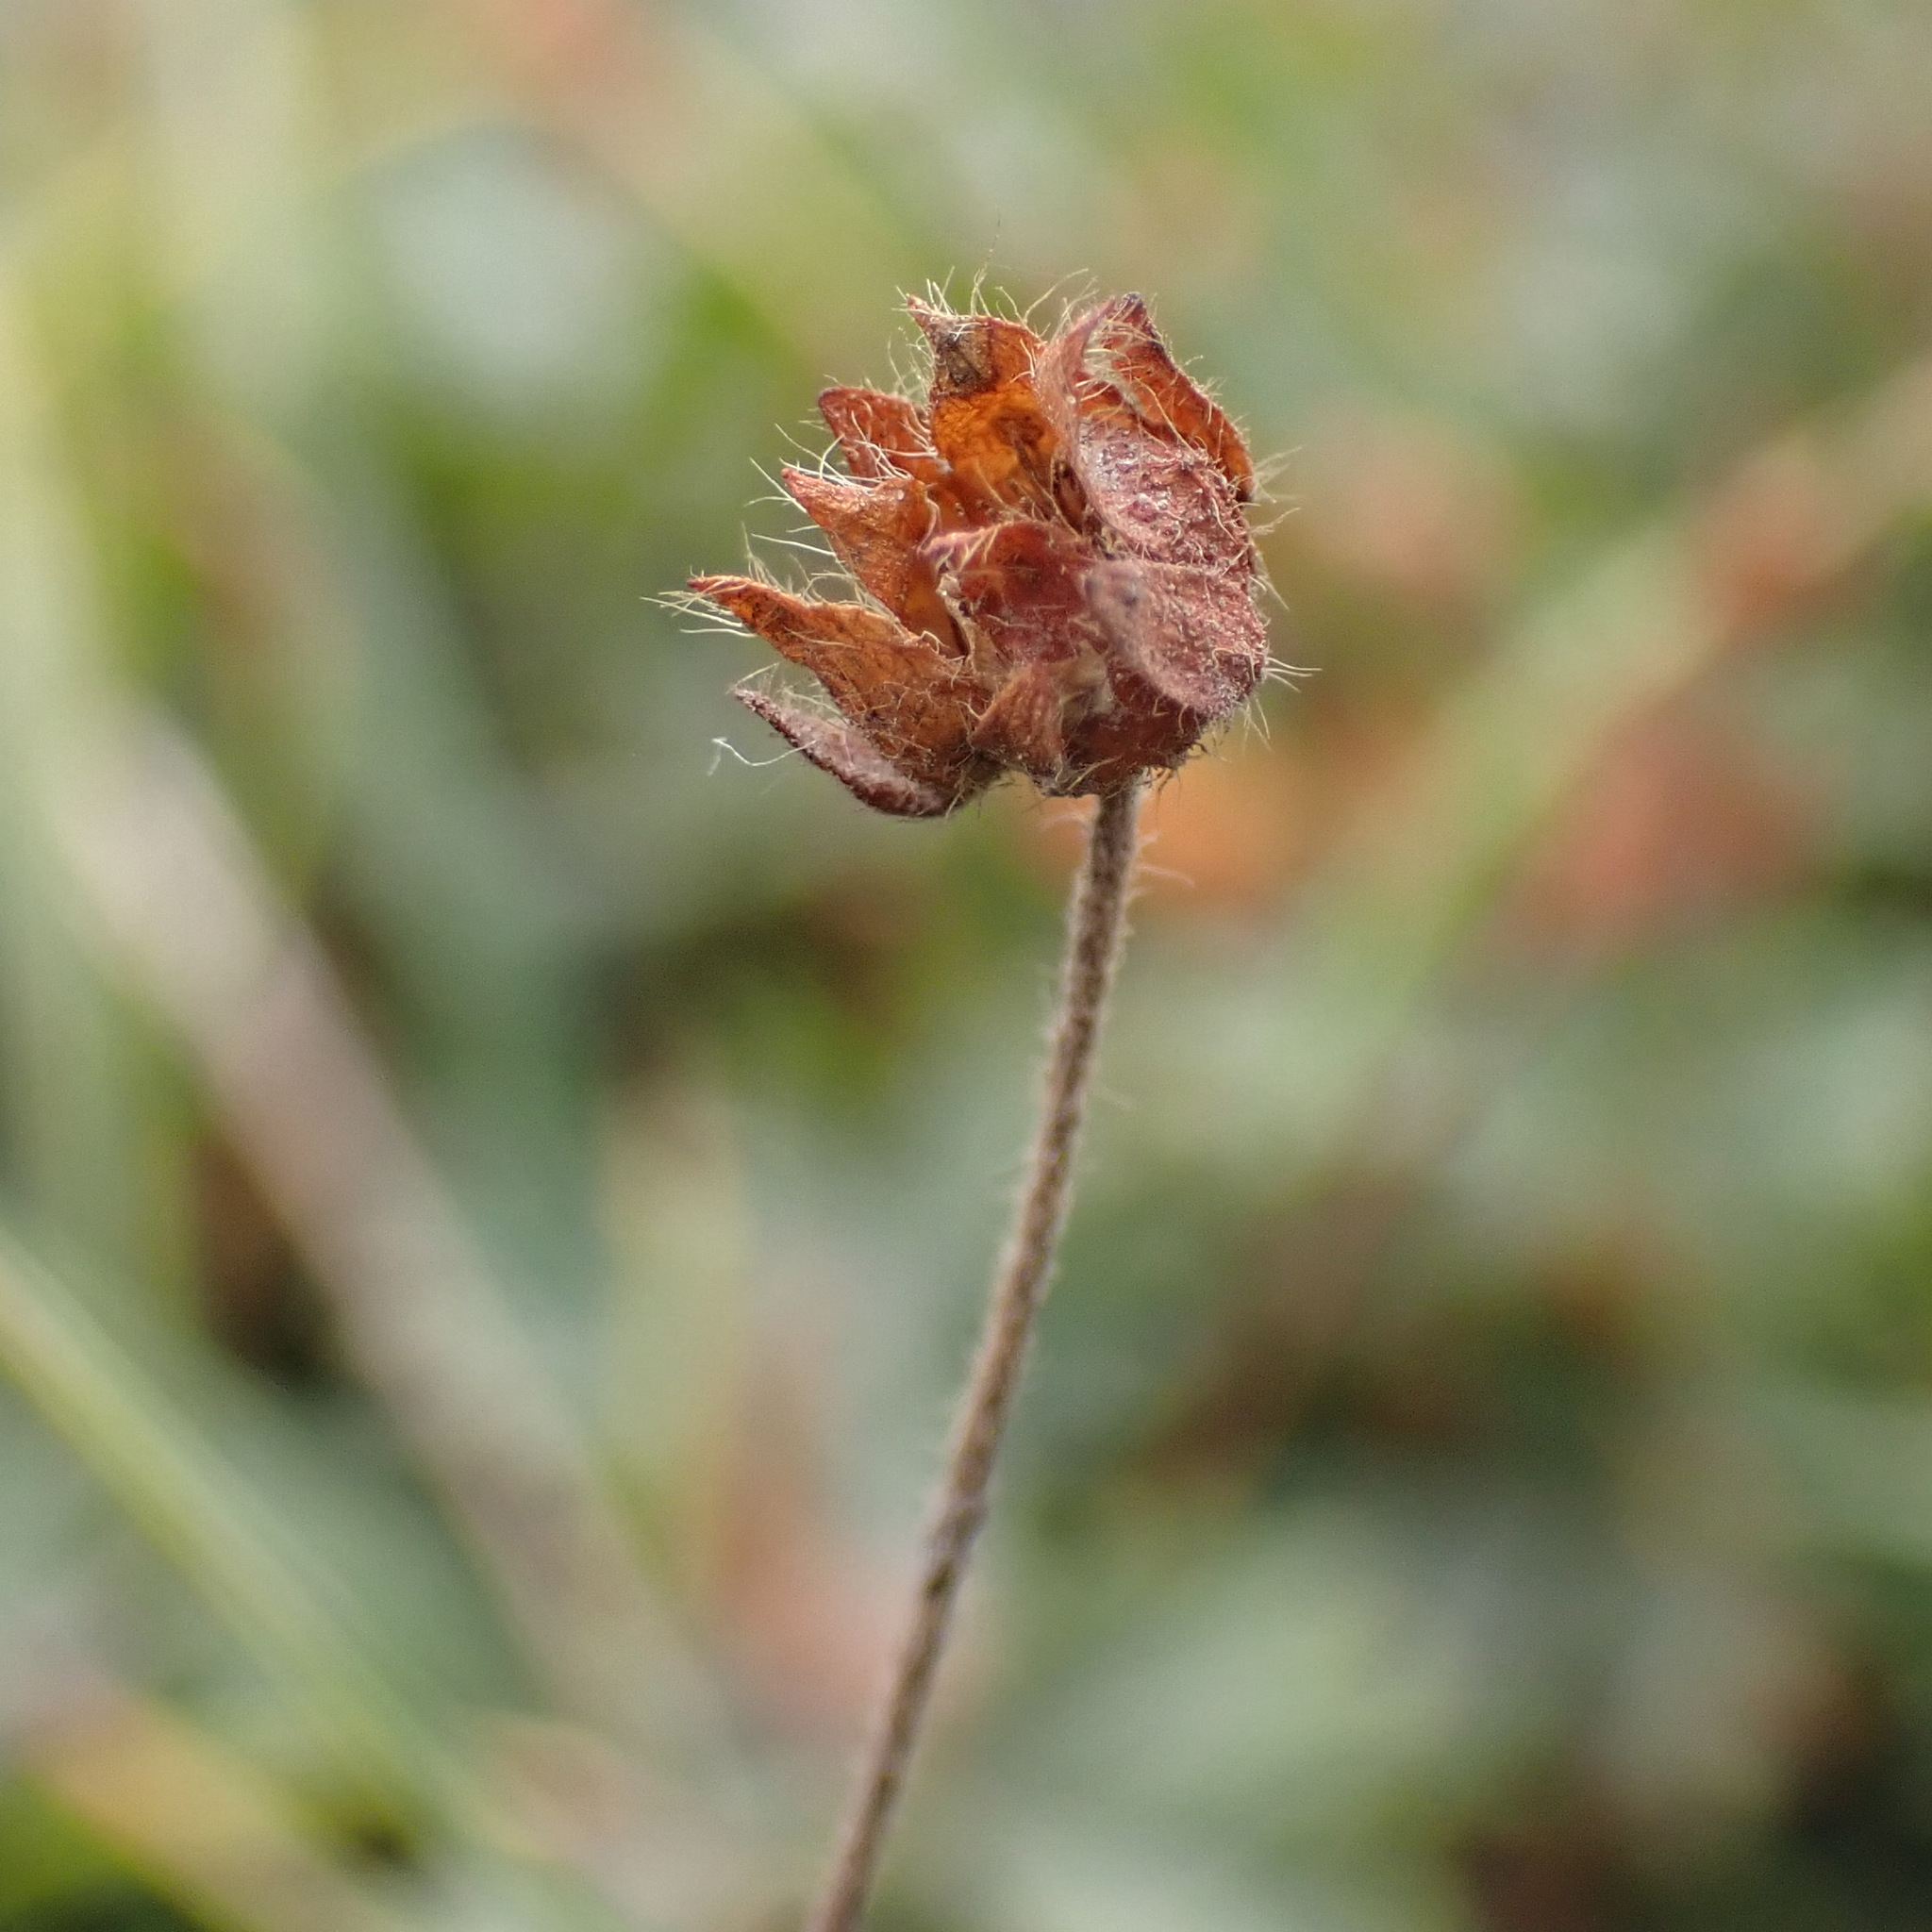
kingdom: Plantae
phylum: Tracheophyta
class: Magnoliopsida
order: Rosales
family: Rosaceae
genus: Potentilla
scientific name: Potentilla flabellifolia
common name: Mount rainier cinquefoil
